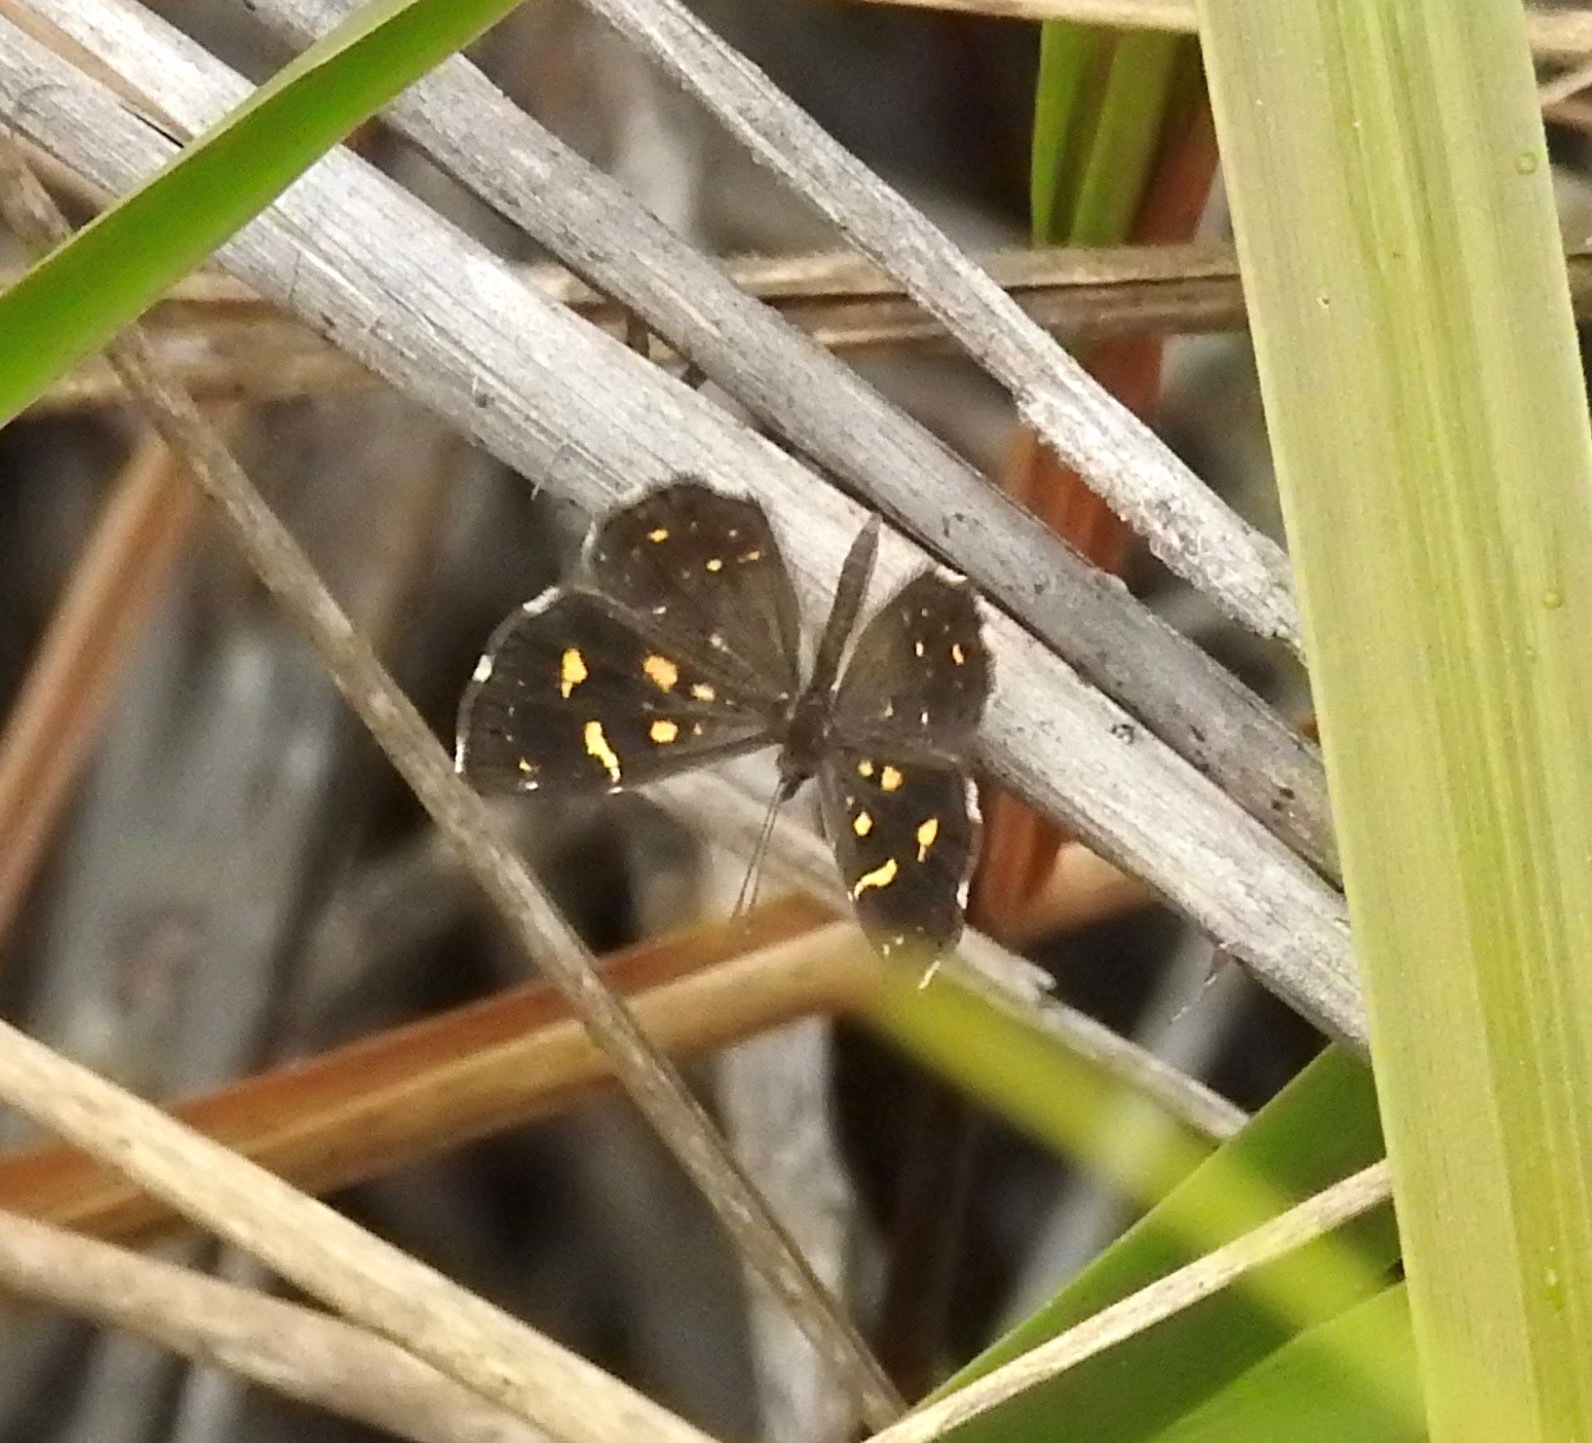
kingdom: Animalia
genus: Baeotis
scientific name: Baeotis
